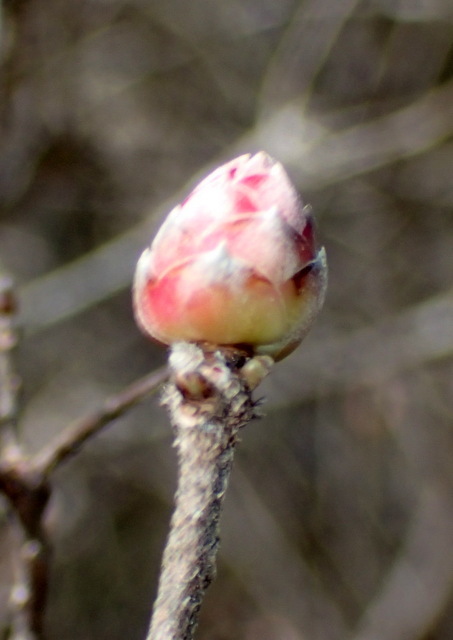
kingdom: Plantae
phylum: Tracheophyta
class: Magnoliopsida
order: Ericales
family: Ericaceae
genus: Rhododendron
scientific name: Rhododendron canescens
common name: Mountain azalea
